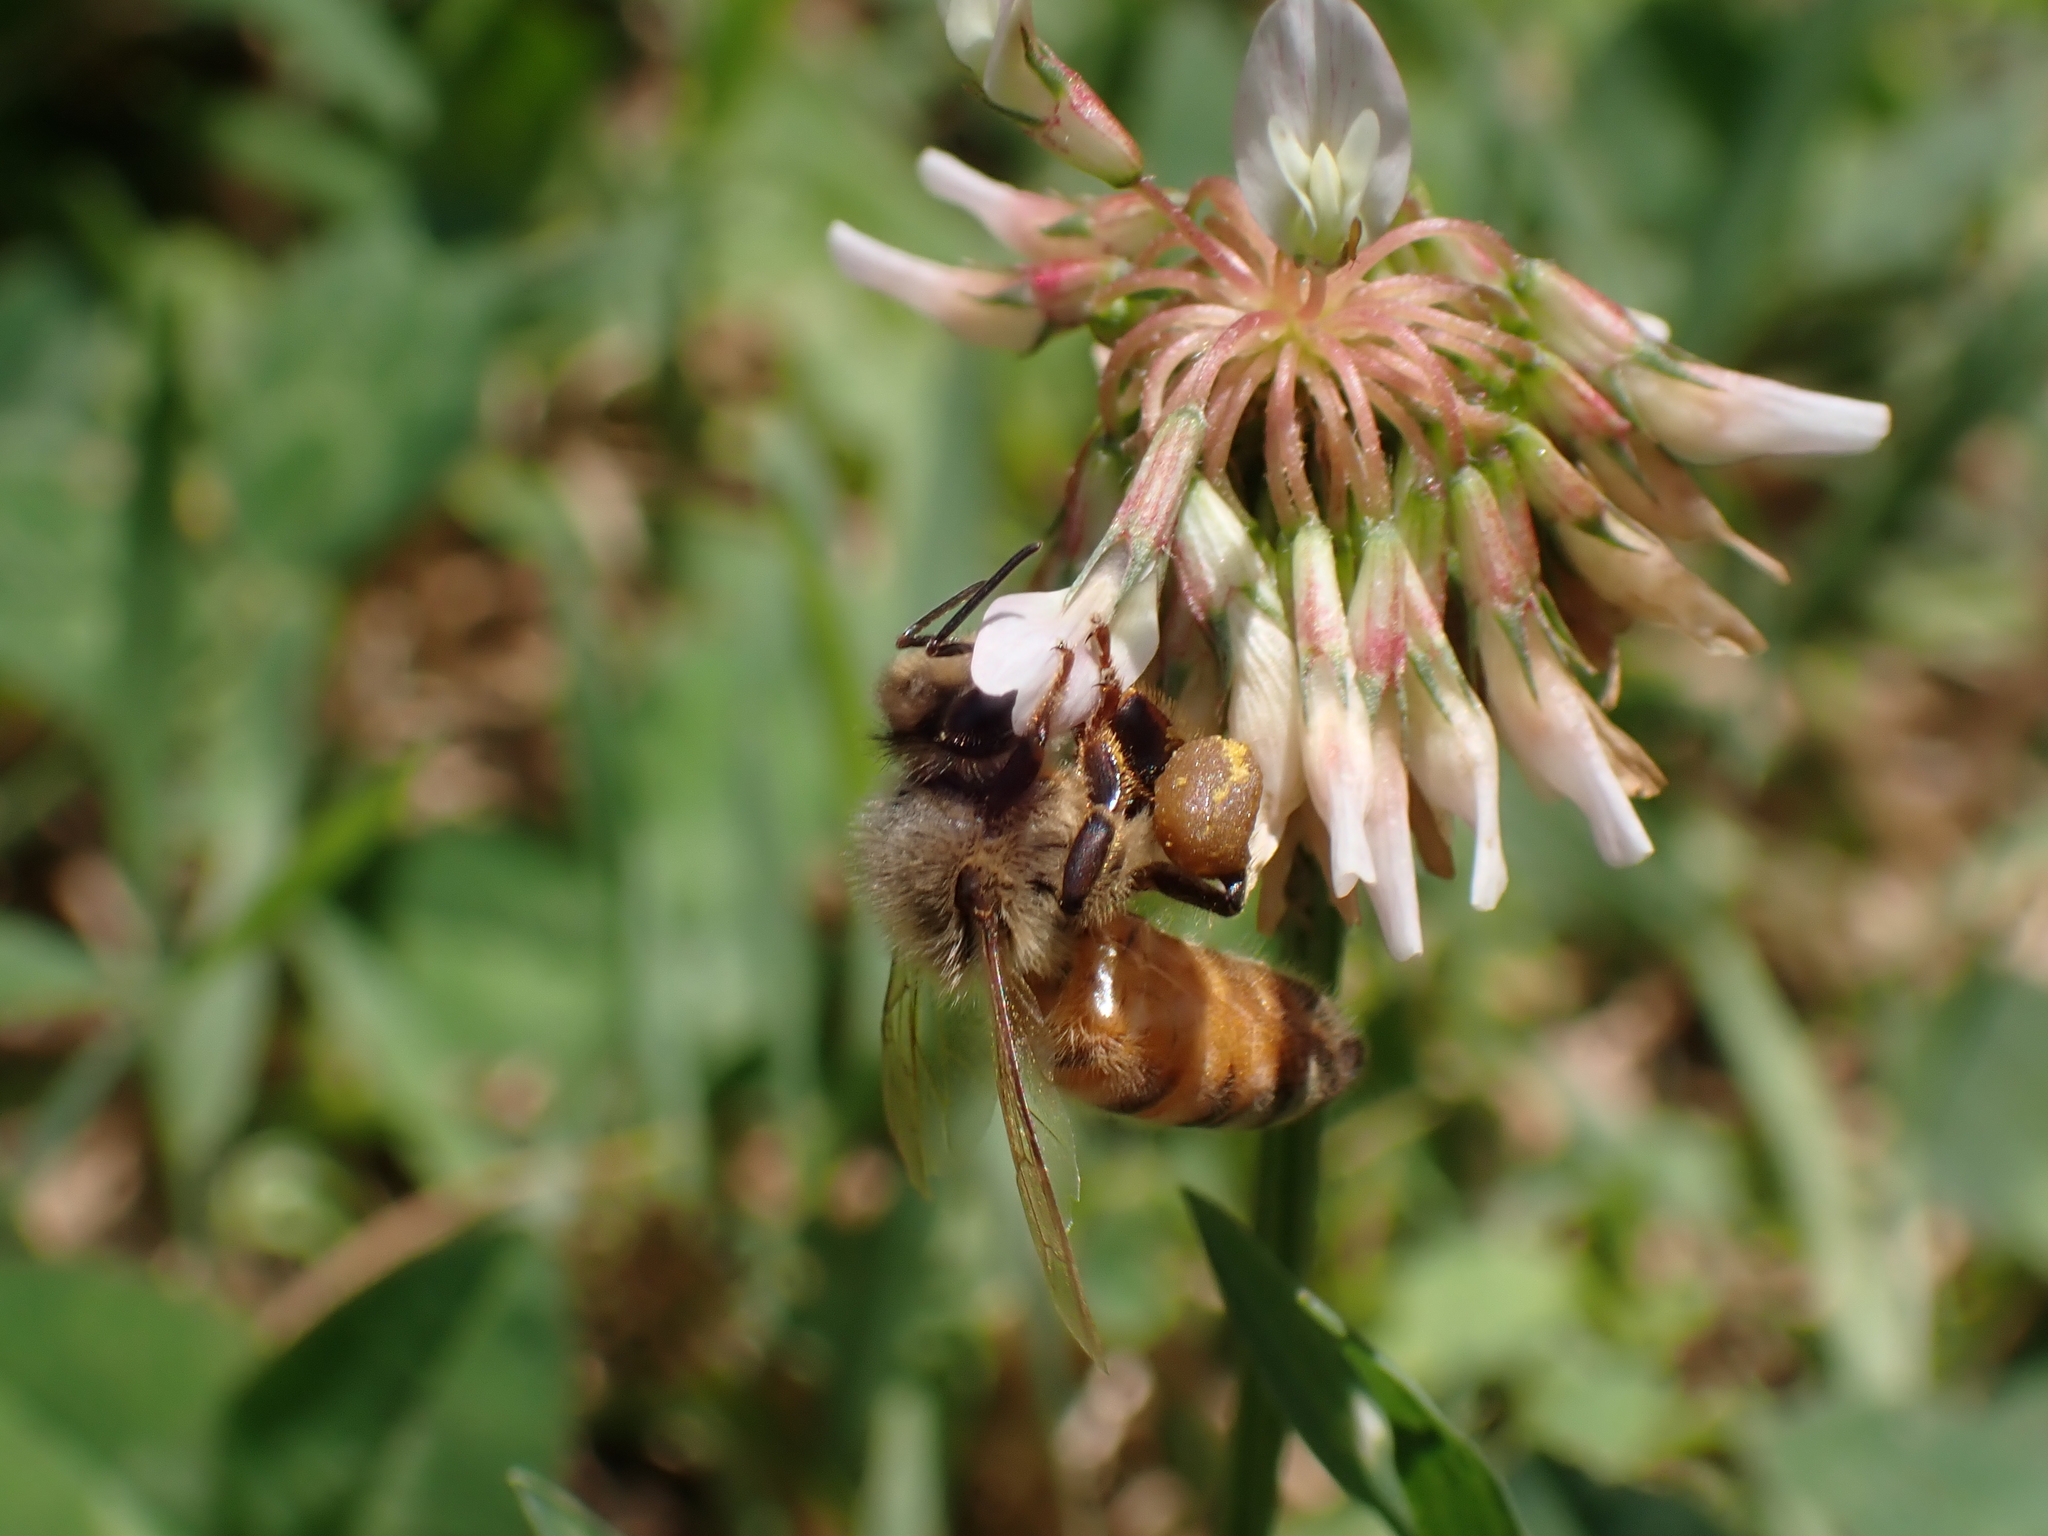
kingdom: Animalia
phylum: Arthropoda
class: Insecta
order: Hymenoptera
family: Apidae
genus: Apis
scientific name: Apis mellifera
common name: Honey bee
